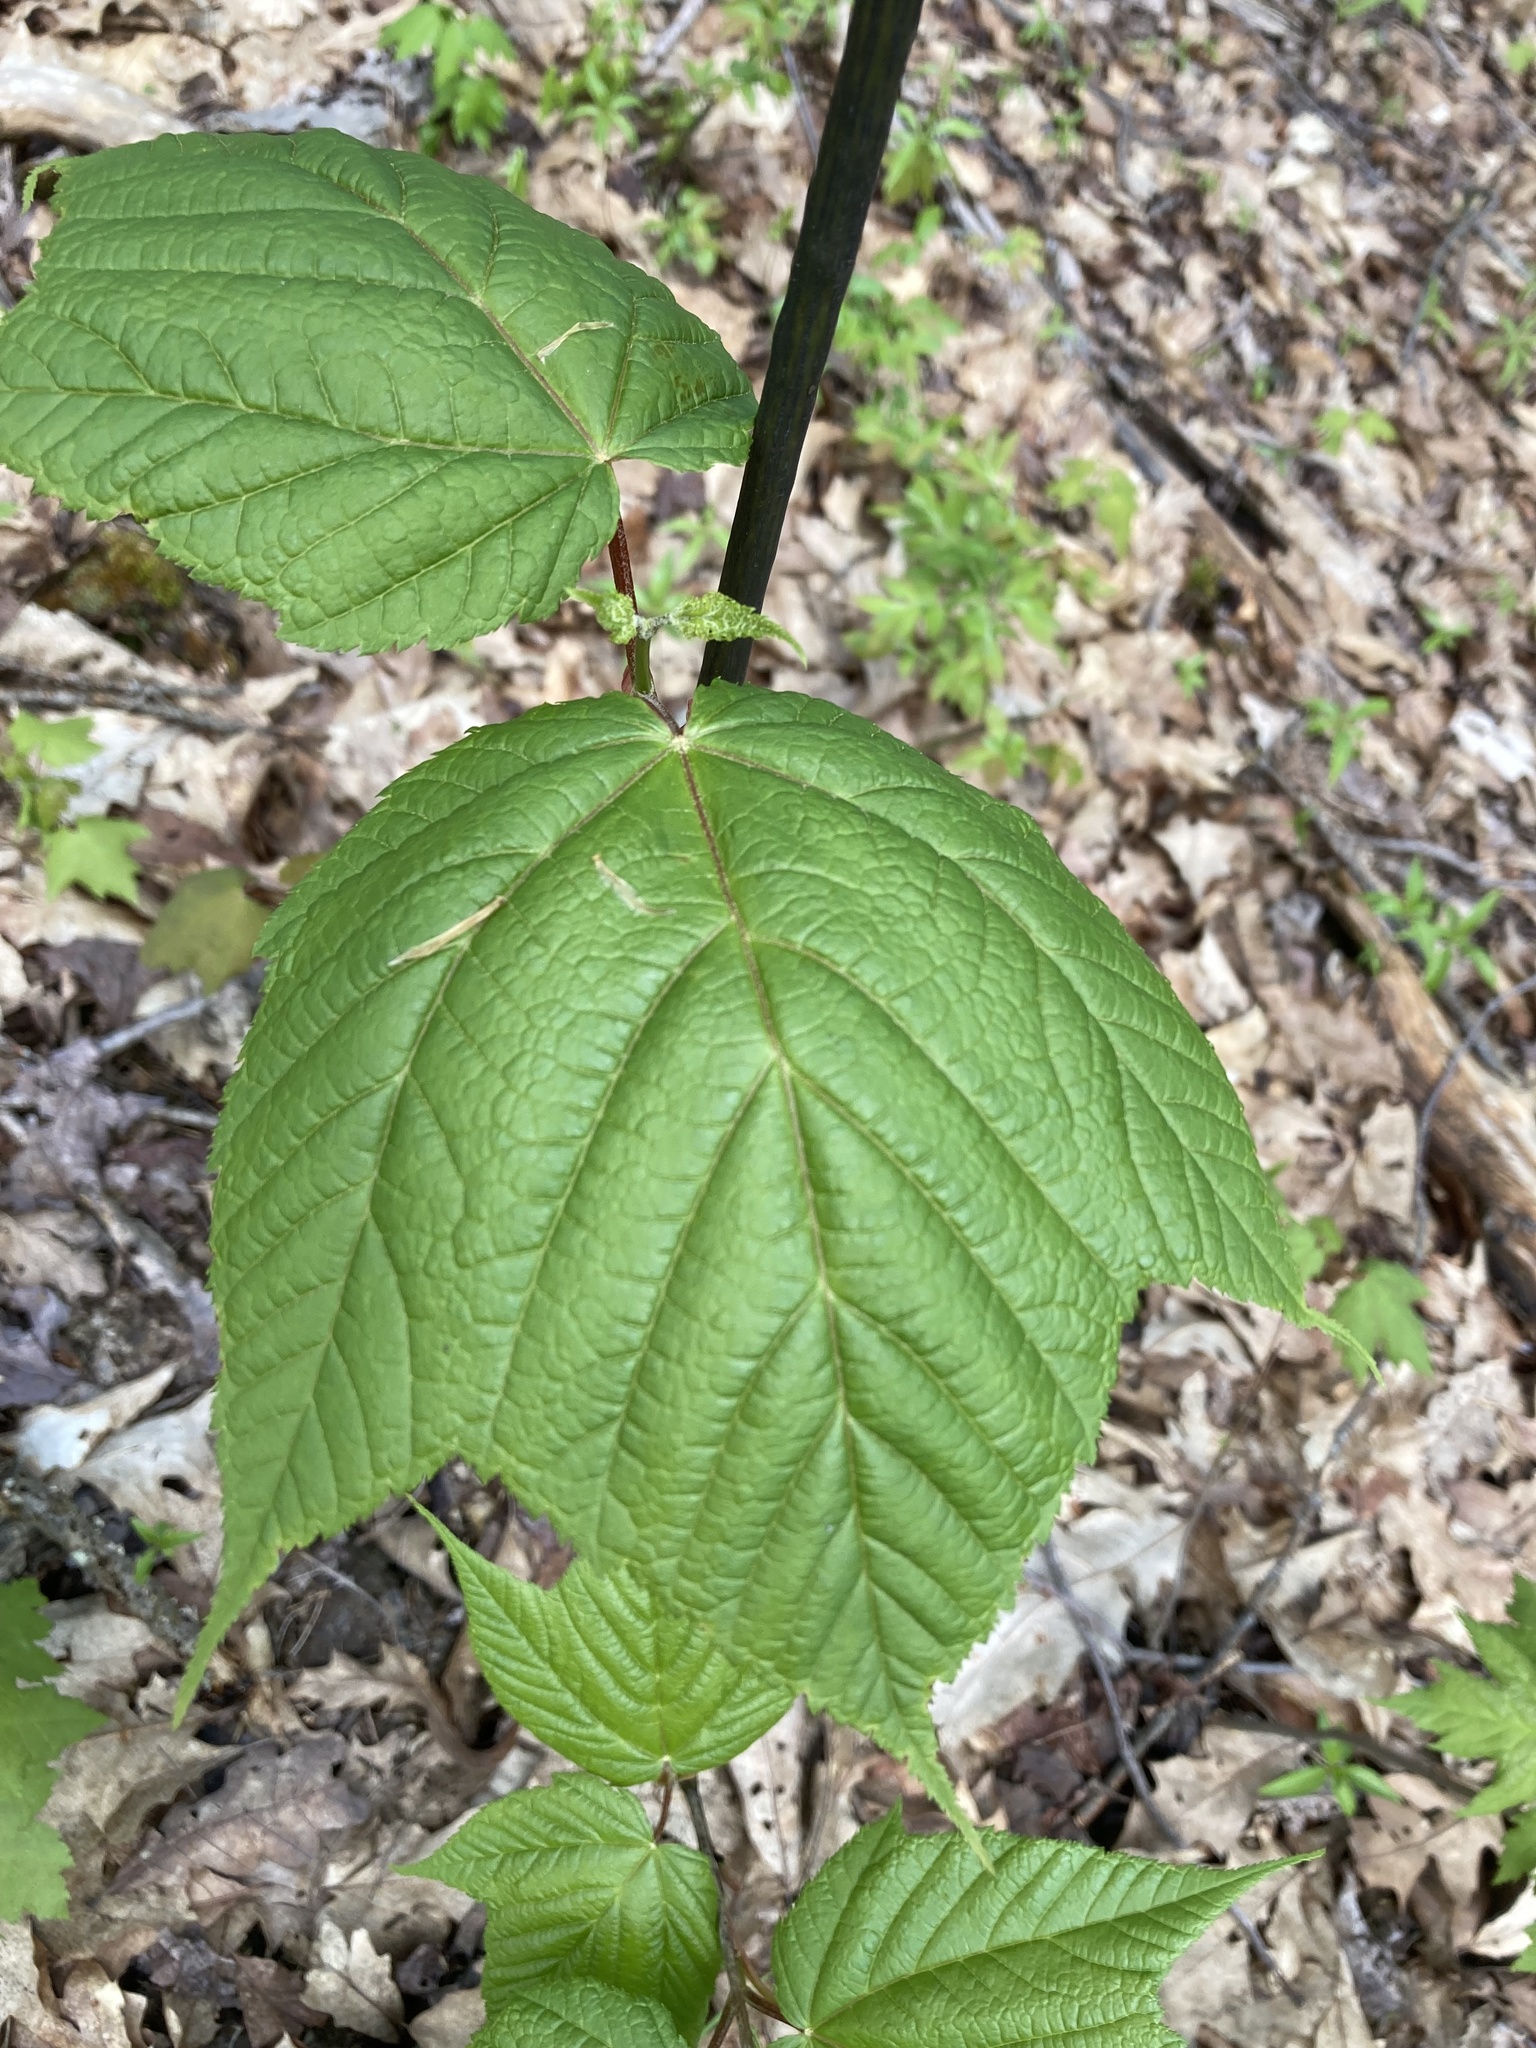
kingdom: Plantae
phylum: Tracheophyta
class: Magnoliopsida
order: Sapindales
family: Sapindaceae
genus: Acer
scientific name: Acer pensylvanicum
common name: Moosewood
